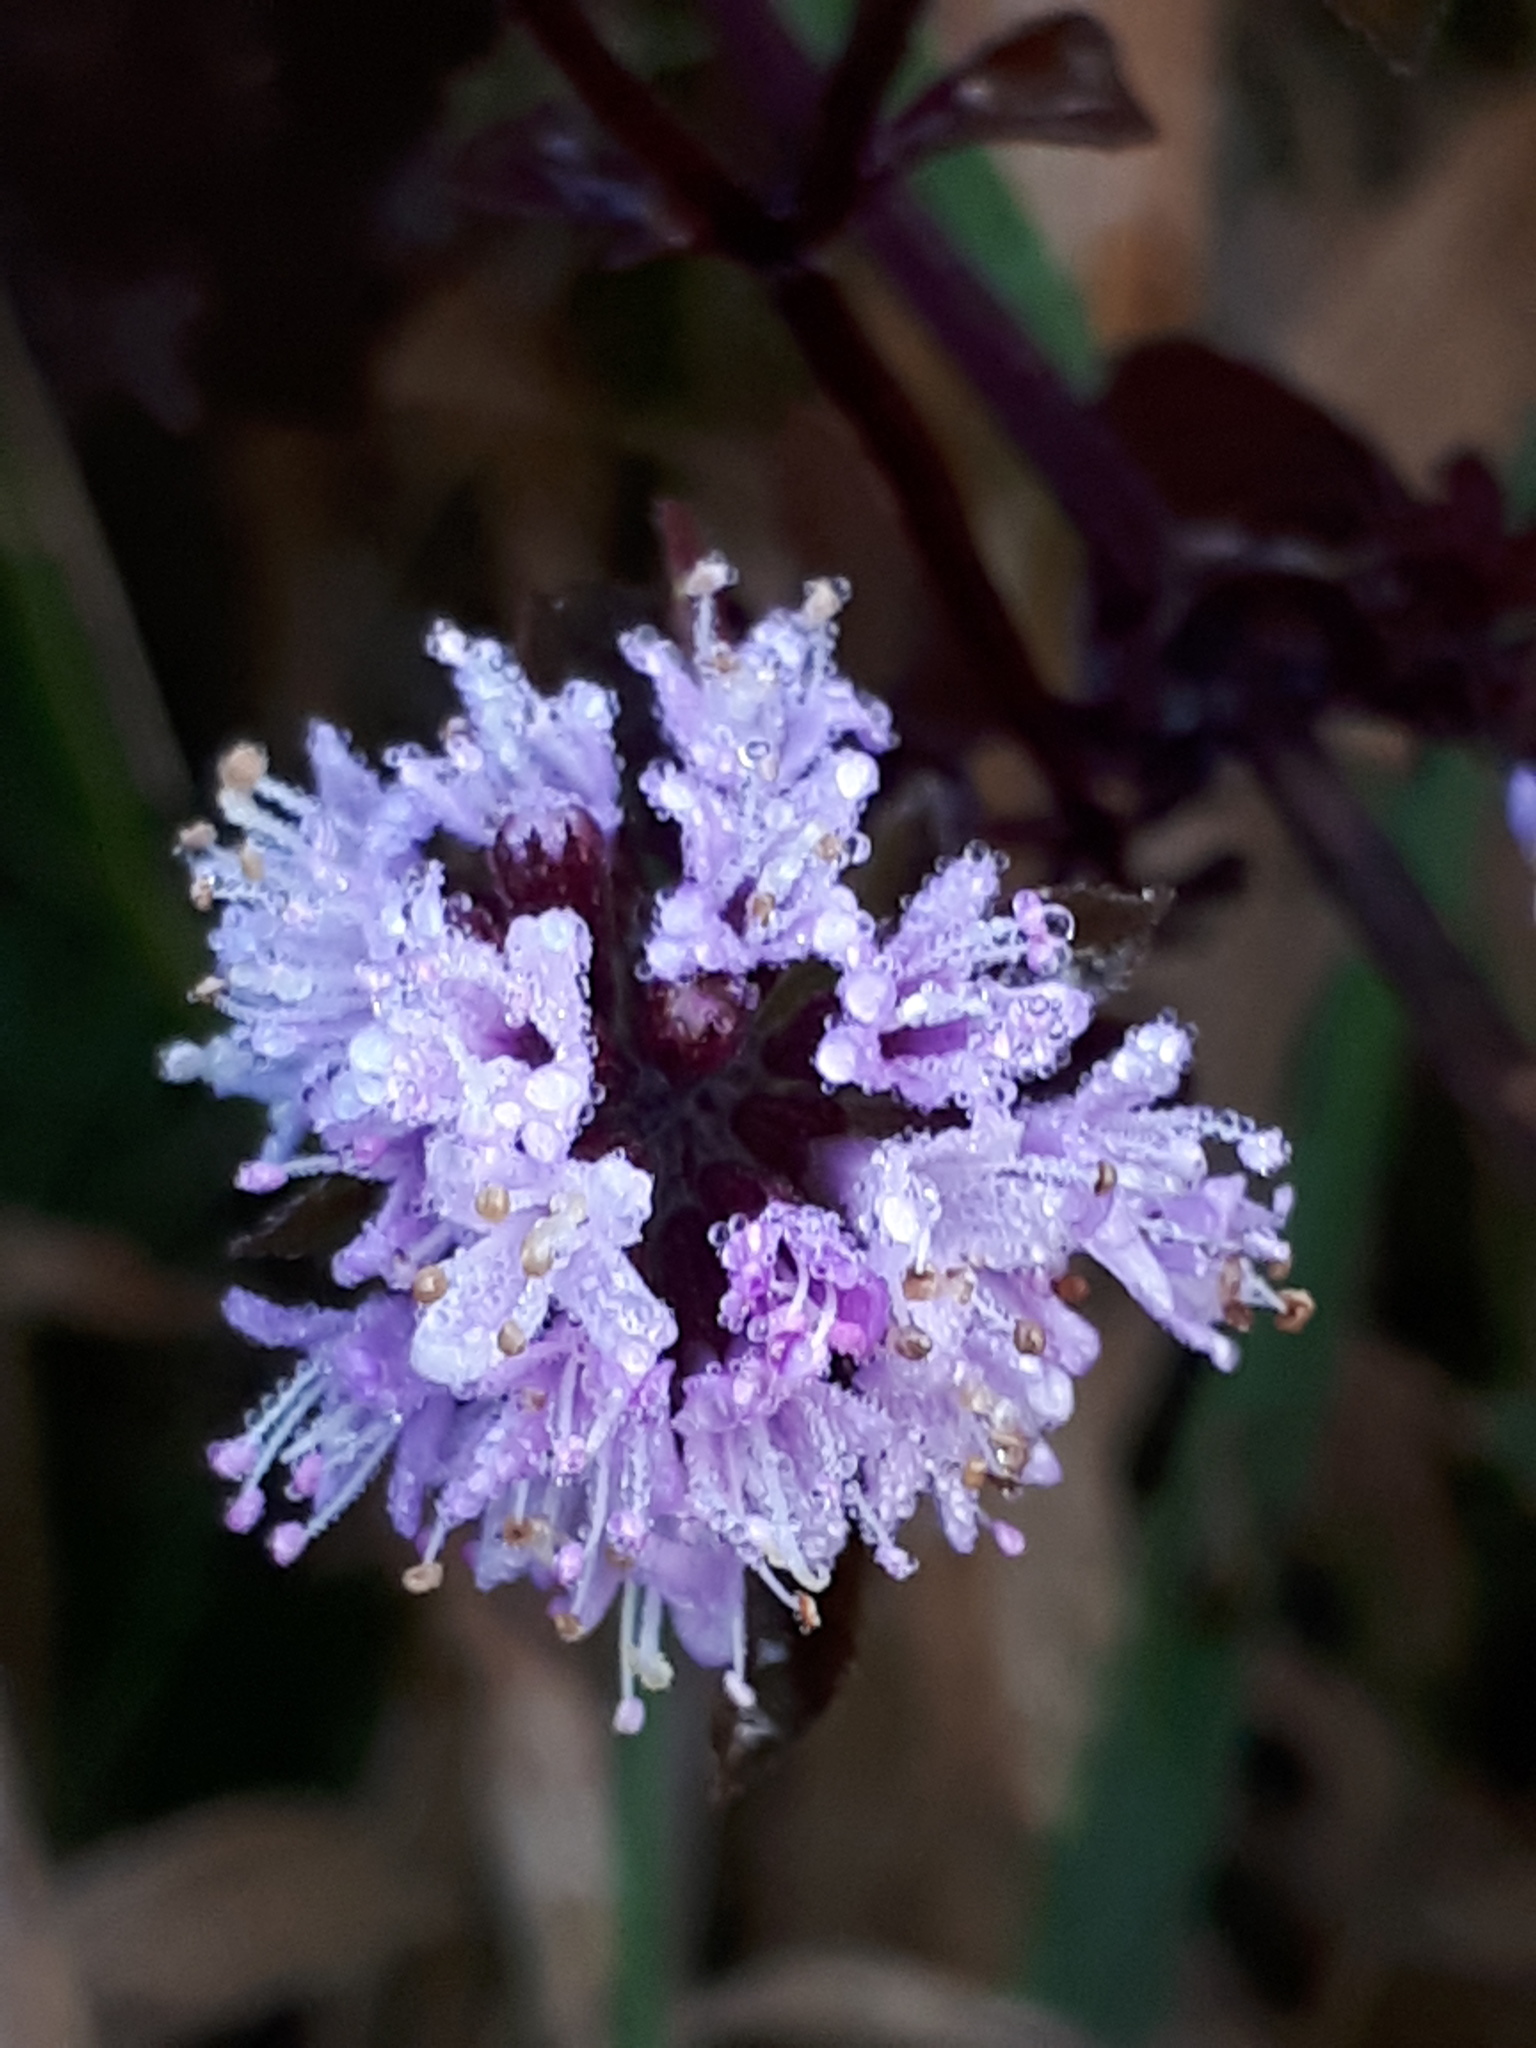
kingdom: Plantae
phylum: Tracheophyta
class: Magnoliopsida
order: Lamiales
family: Lamiaceae
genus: Mentha
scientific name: Mentha aquatica
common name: Water mint
